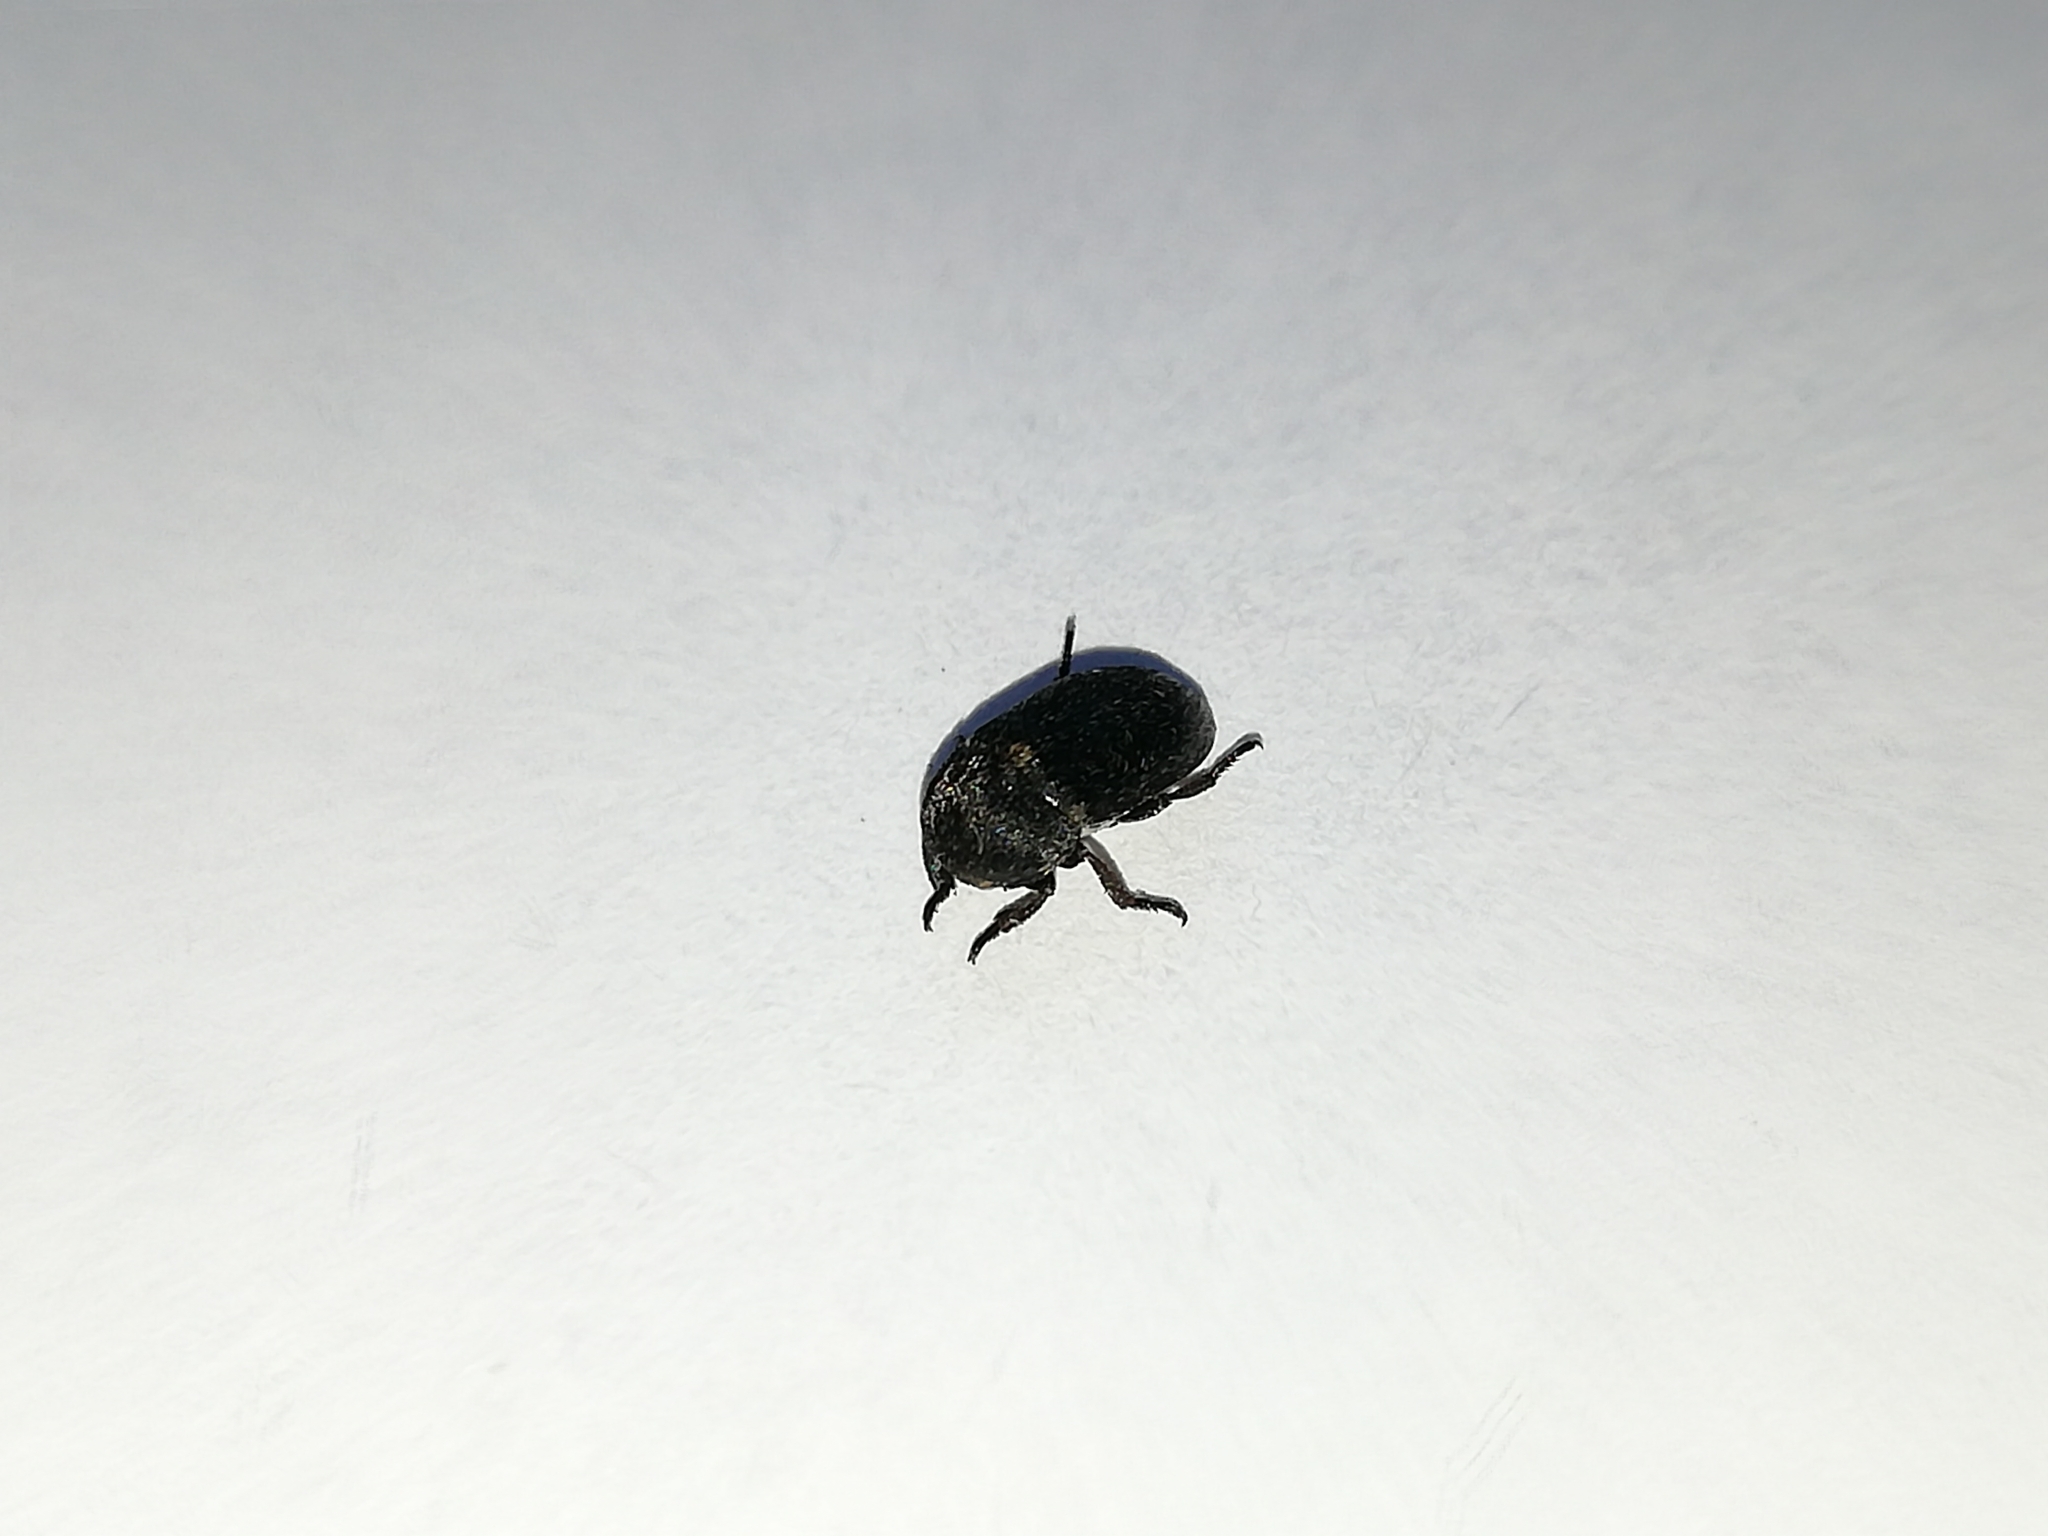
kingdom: Animalia
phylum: Arthropoda
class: Insecta
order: Coleoptera
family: Dermestidae
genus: Dermestes
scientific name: Dermestes laniarius
